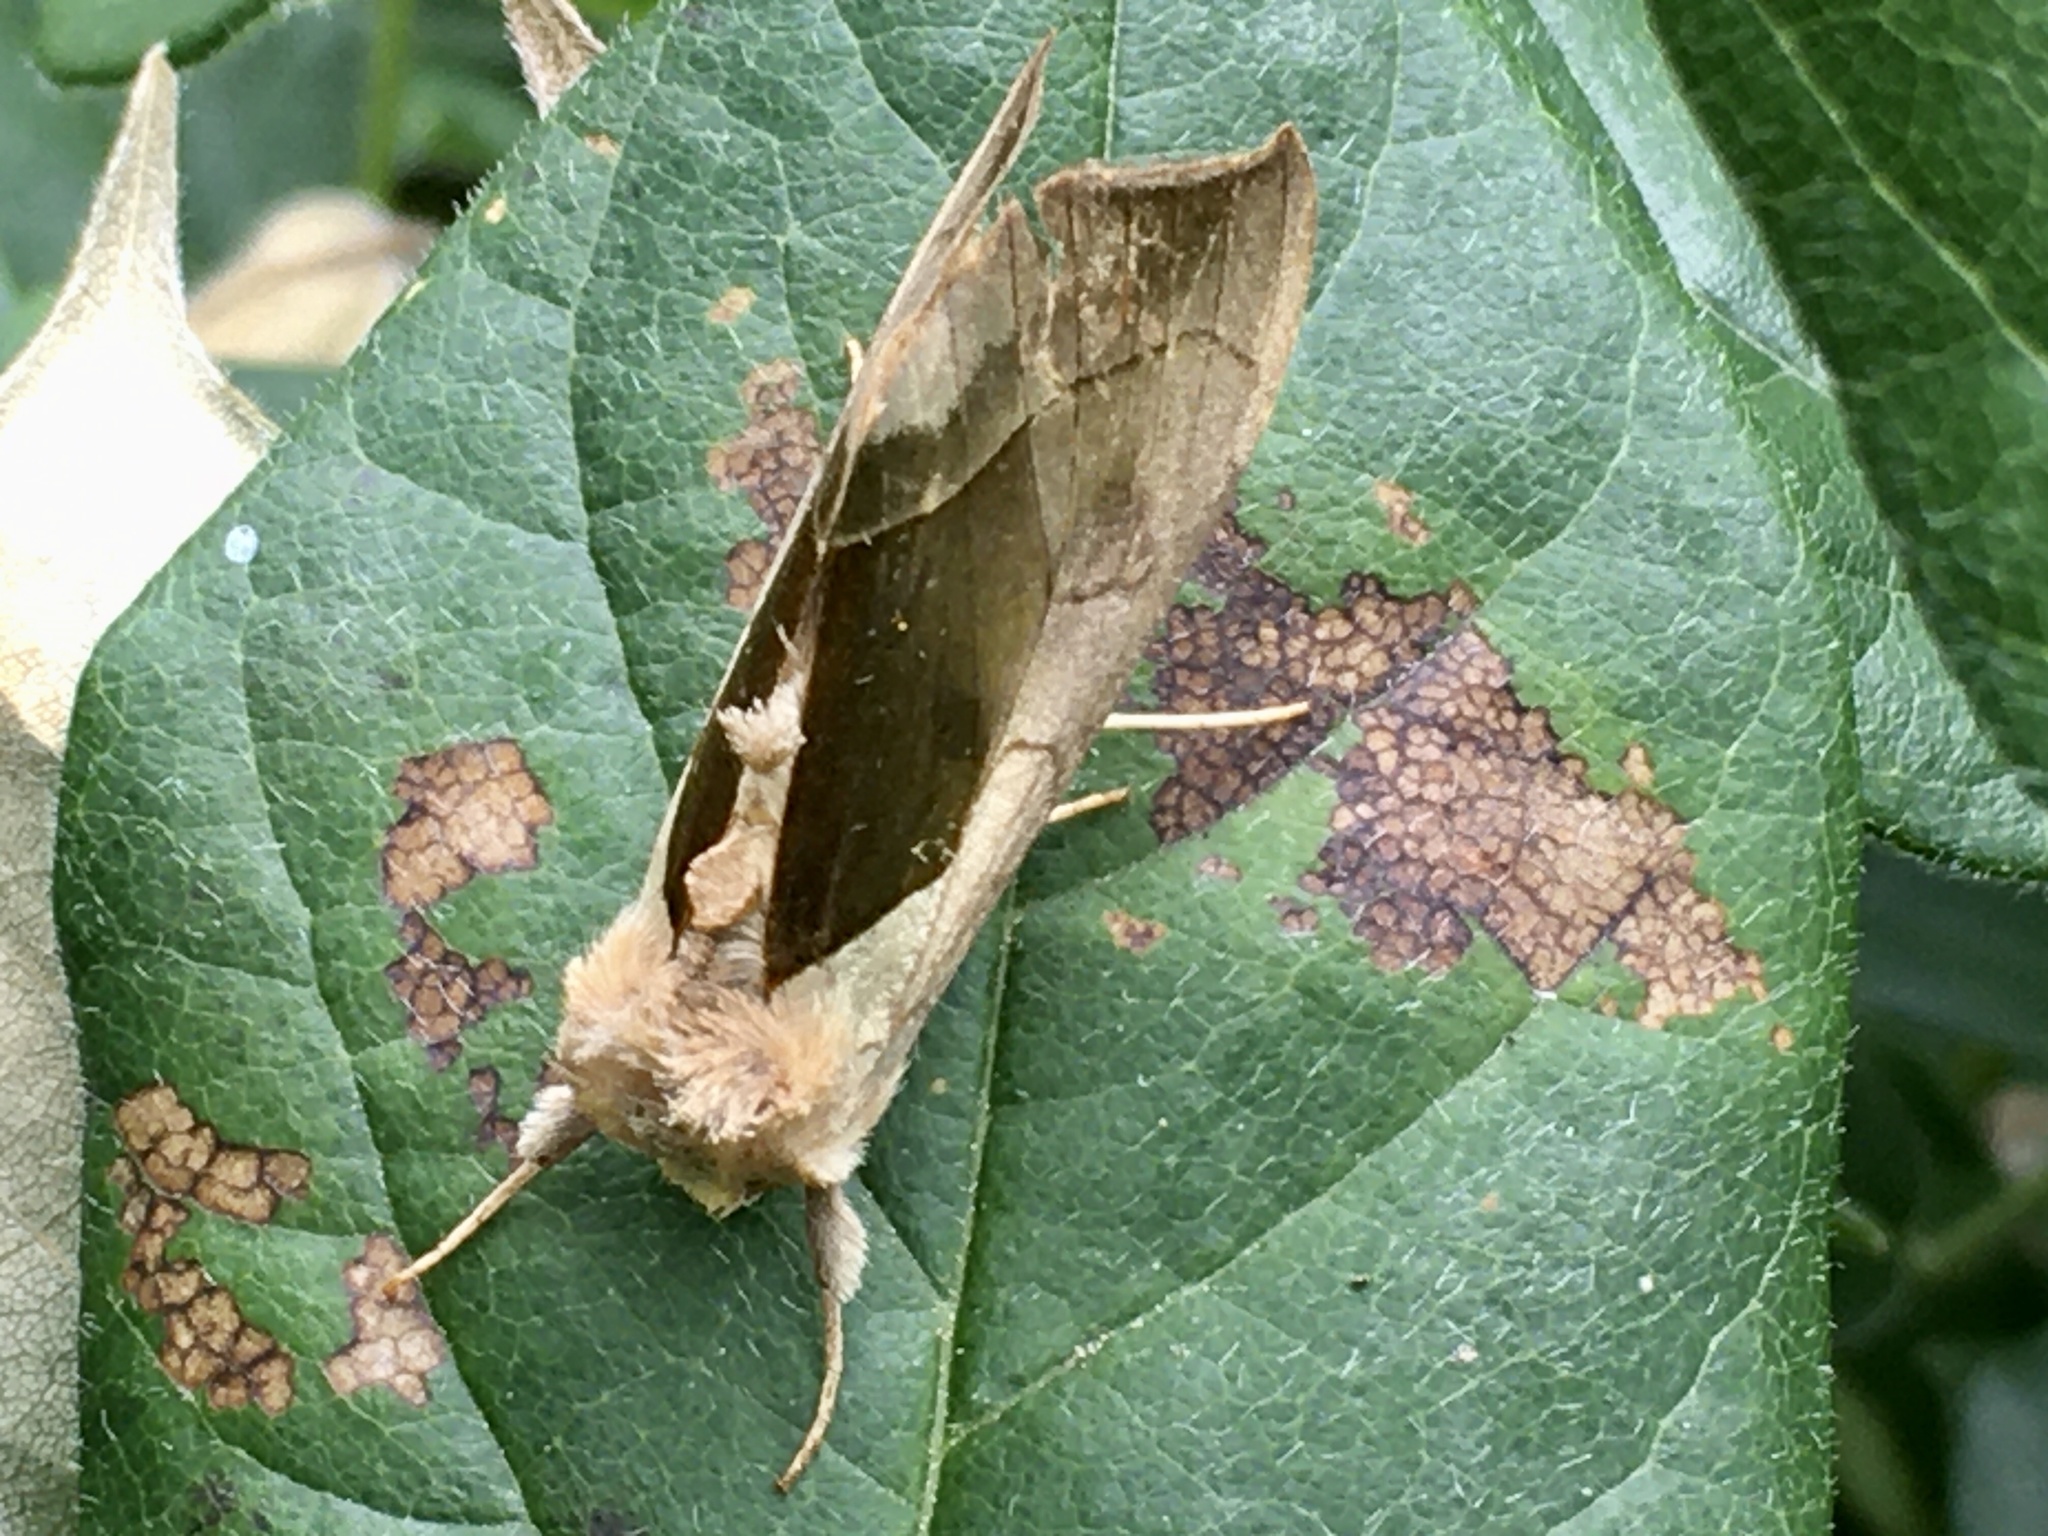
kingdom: Animalia
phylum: Arthropoda
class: Insecta
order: Lepidoptera
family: Noctuidae
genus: Diachrysia
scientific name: Diachrysia balluca
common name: Green-patched looper moth
